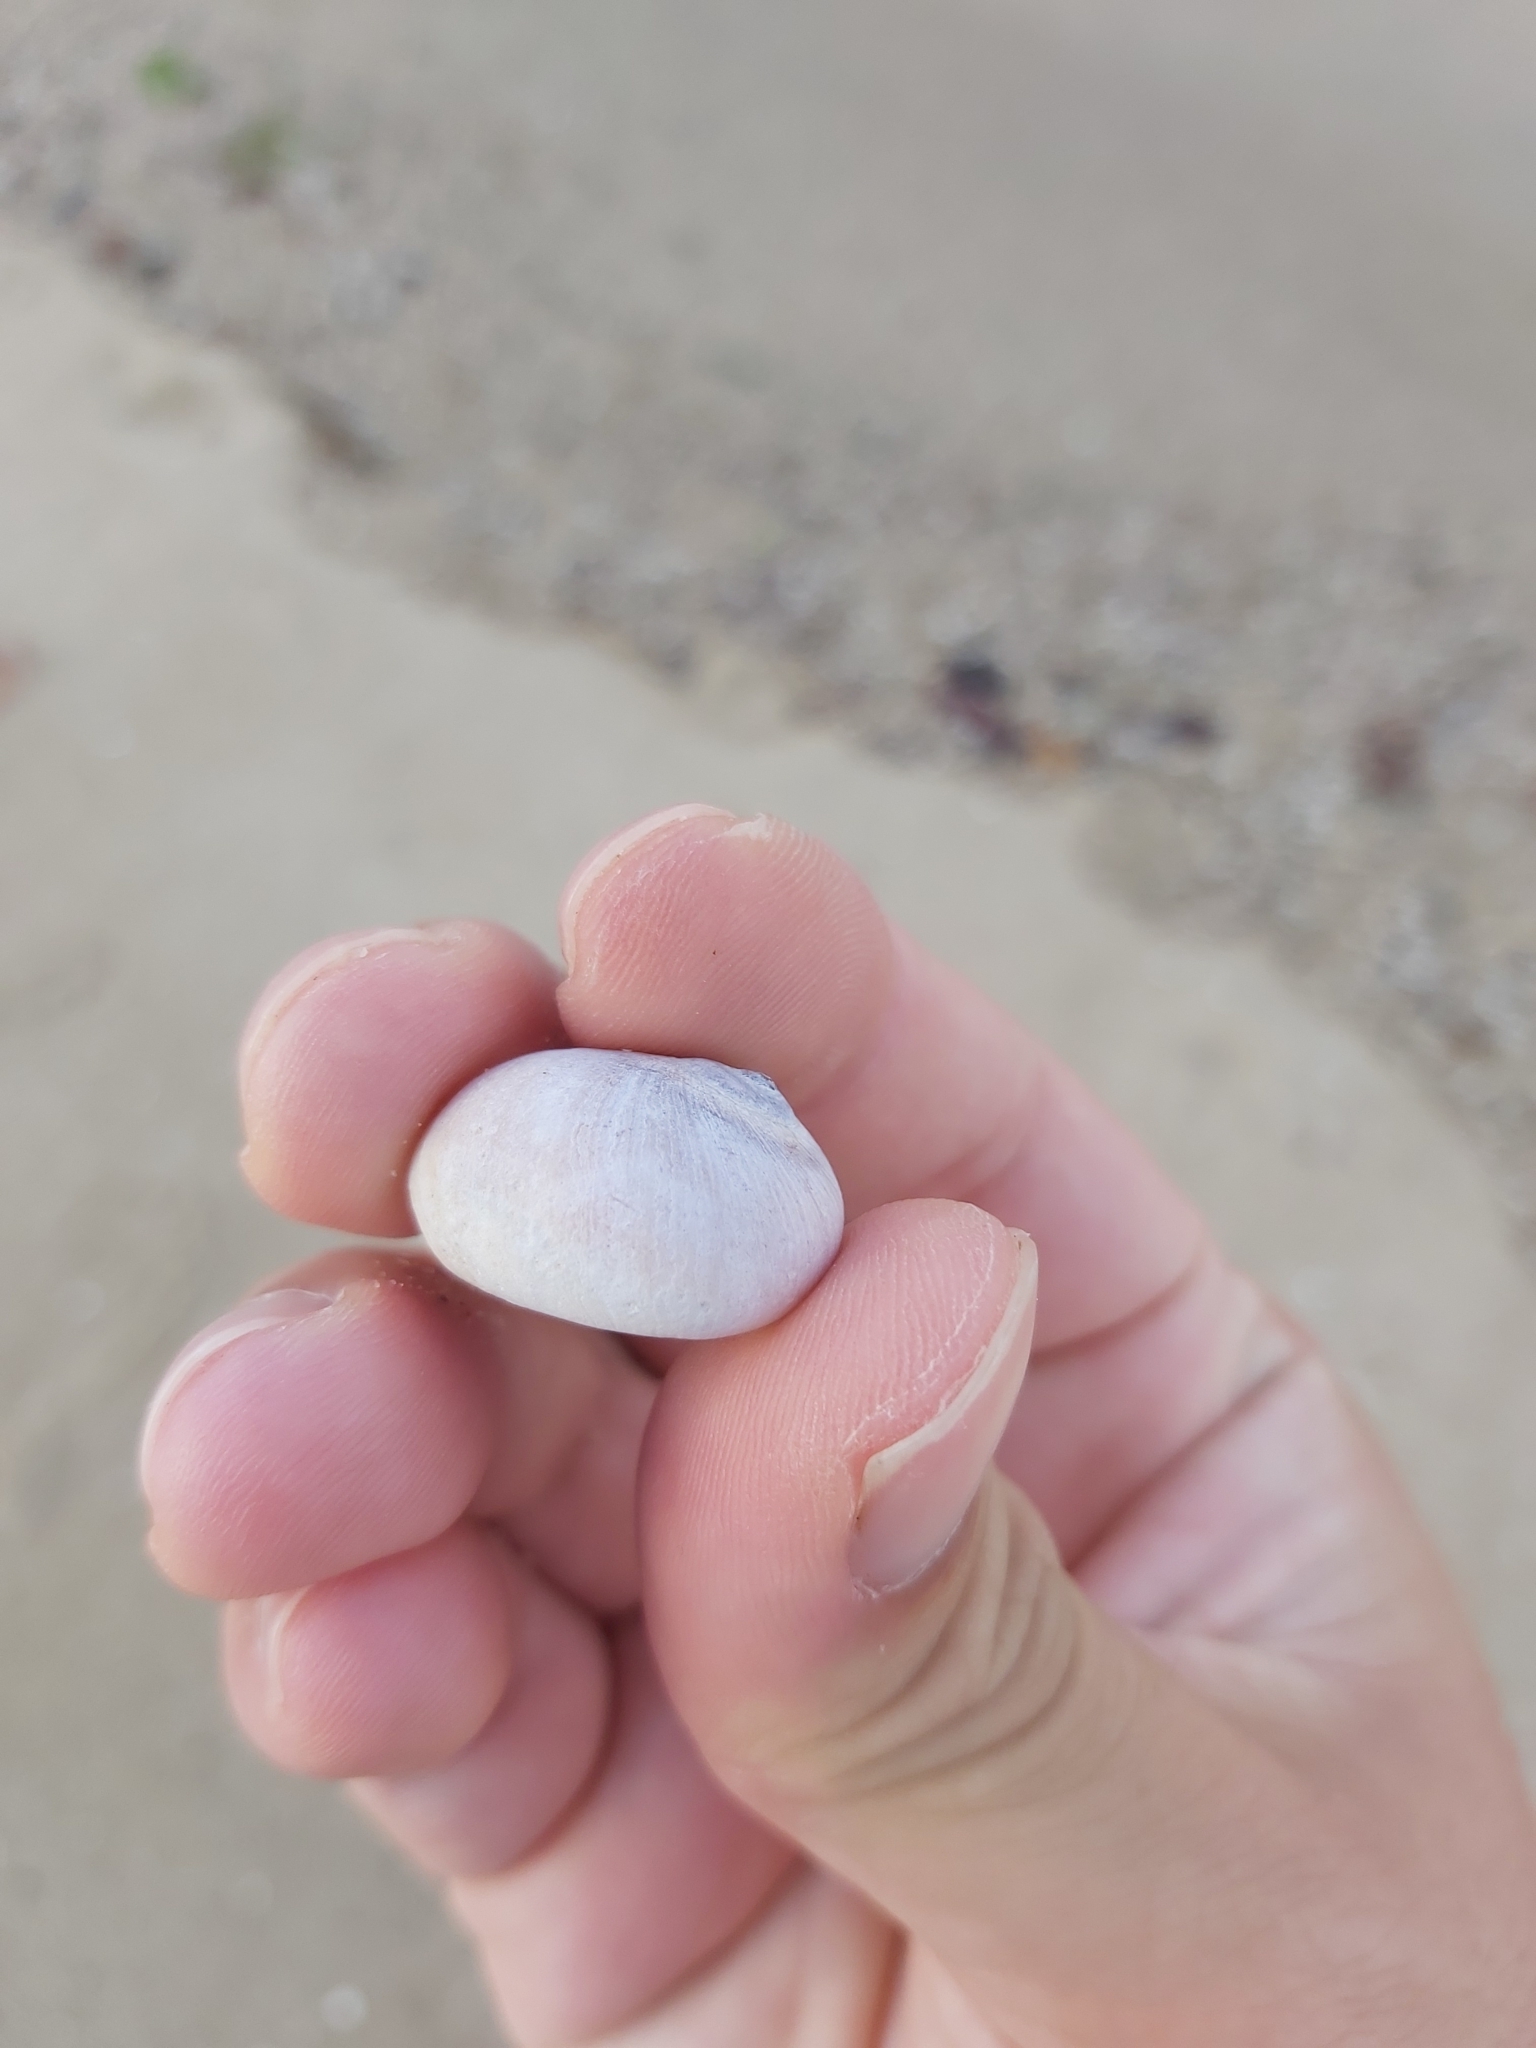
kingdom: Animalia
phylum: Mollusca
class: Gastropoda
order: Littorinimorpha
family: Naticidae
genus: Neverita
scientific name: Neverita didyma
